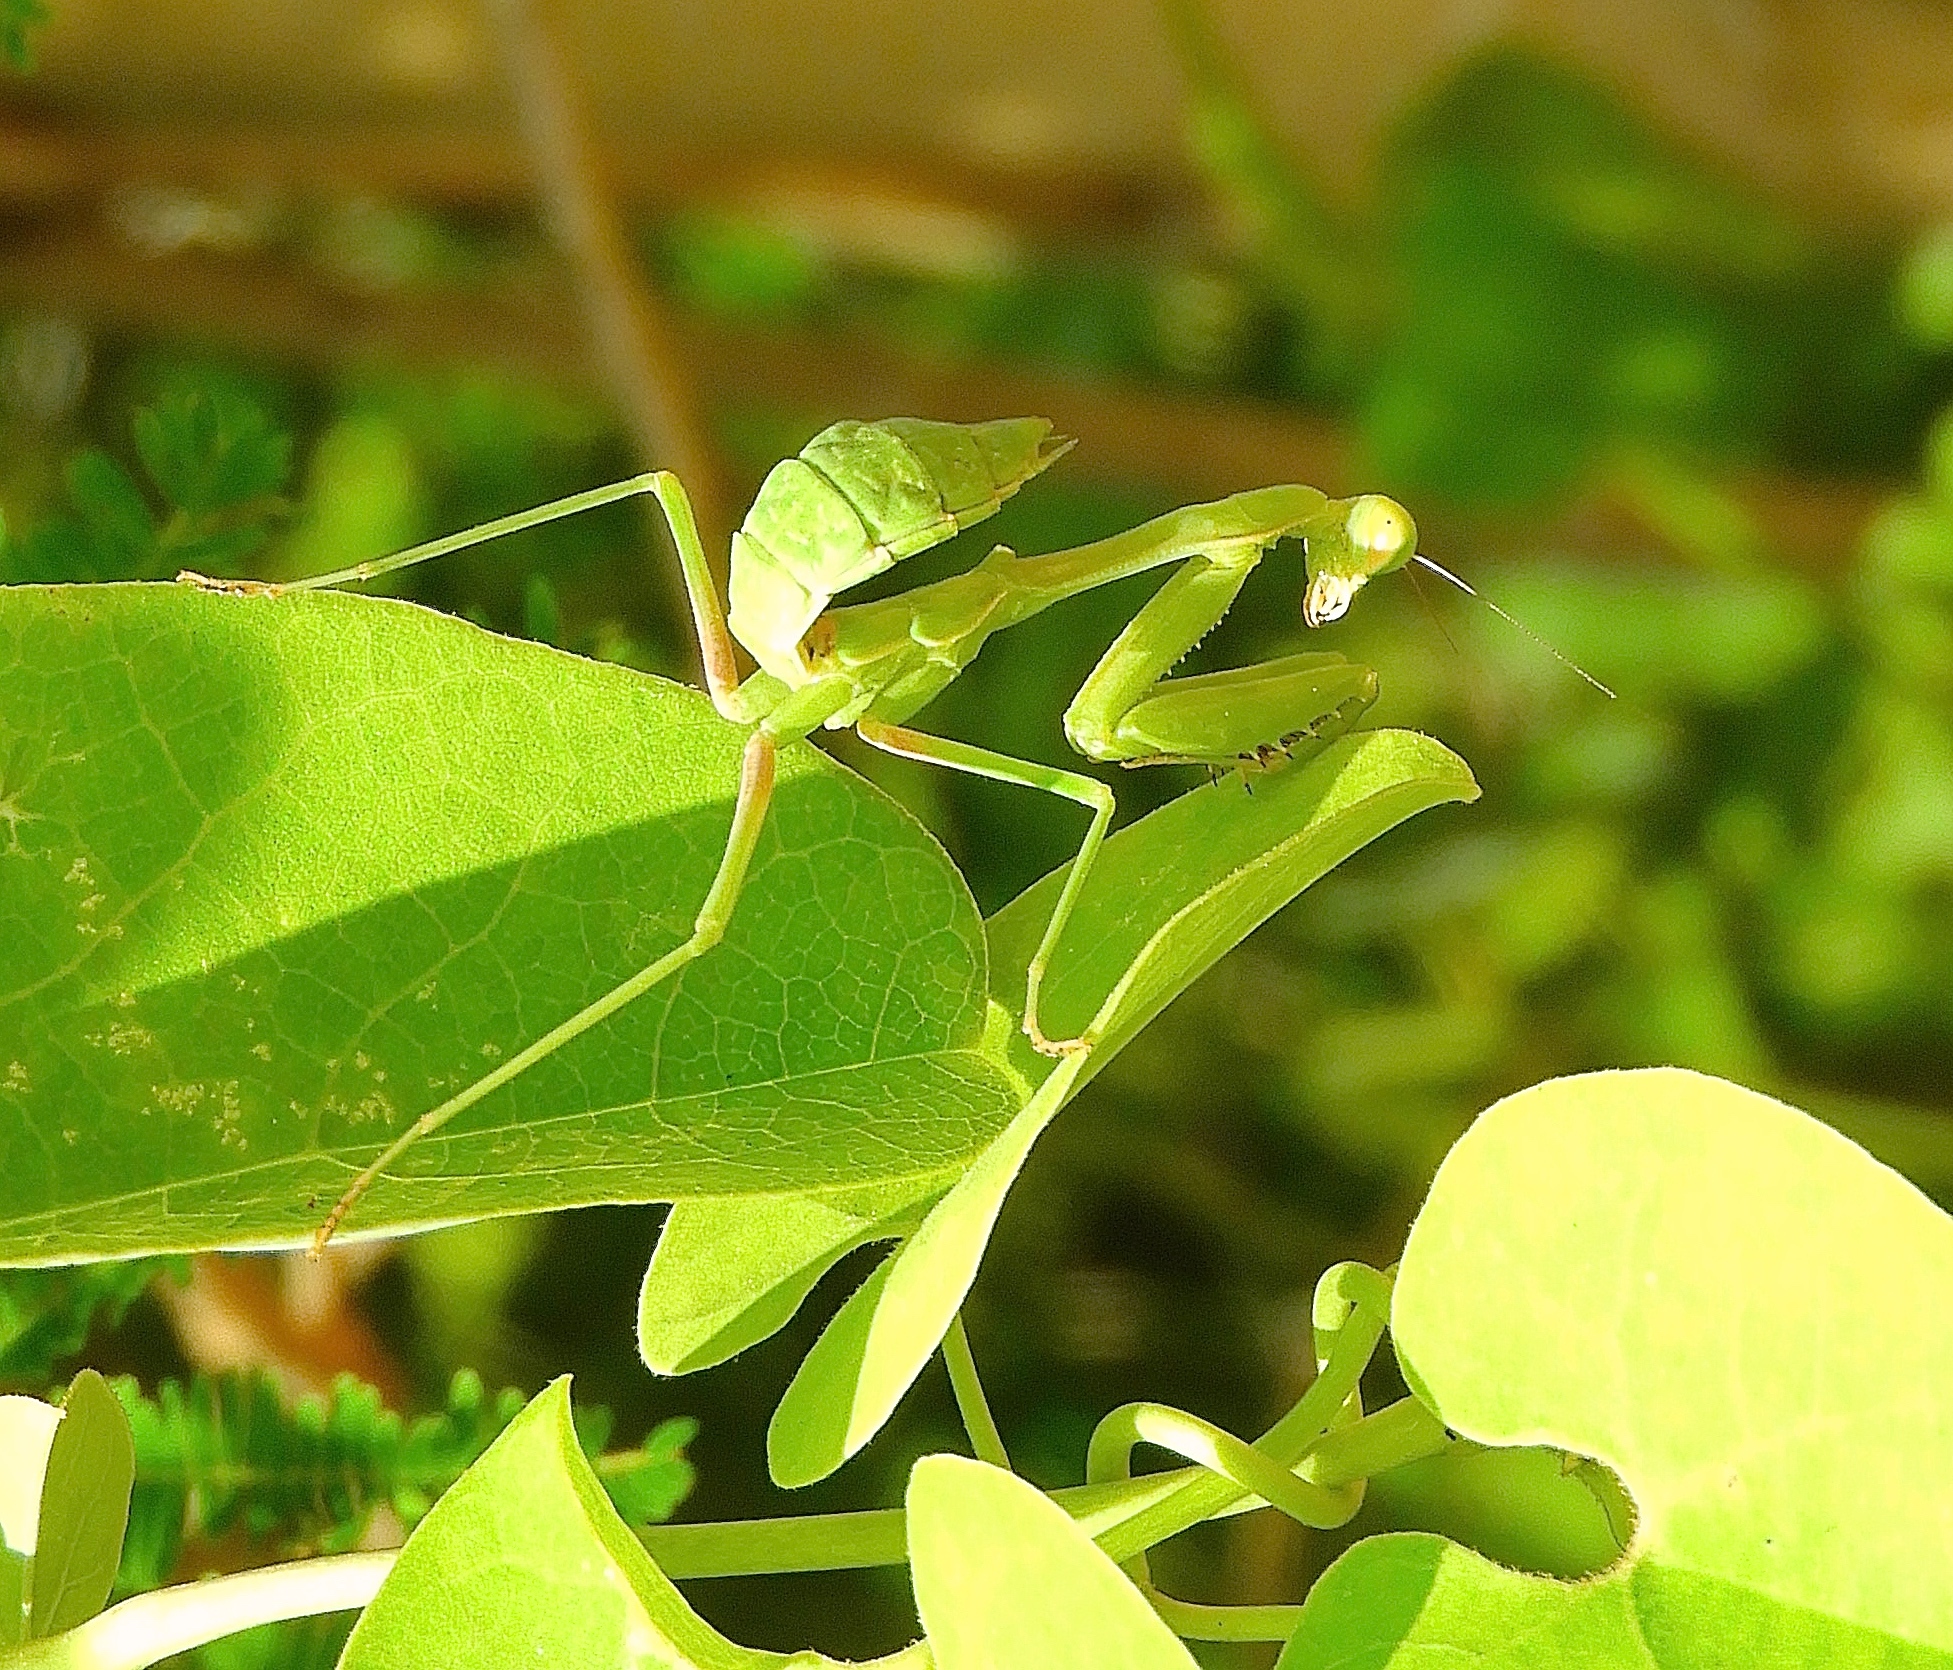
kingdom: Animalia
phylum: Arthropoda
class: Insecta
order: Mantodea
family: Mantidae
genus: Stagmomantis
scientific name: Stagmomantis
